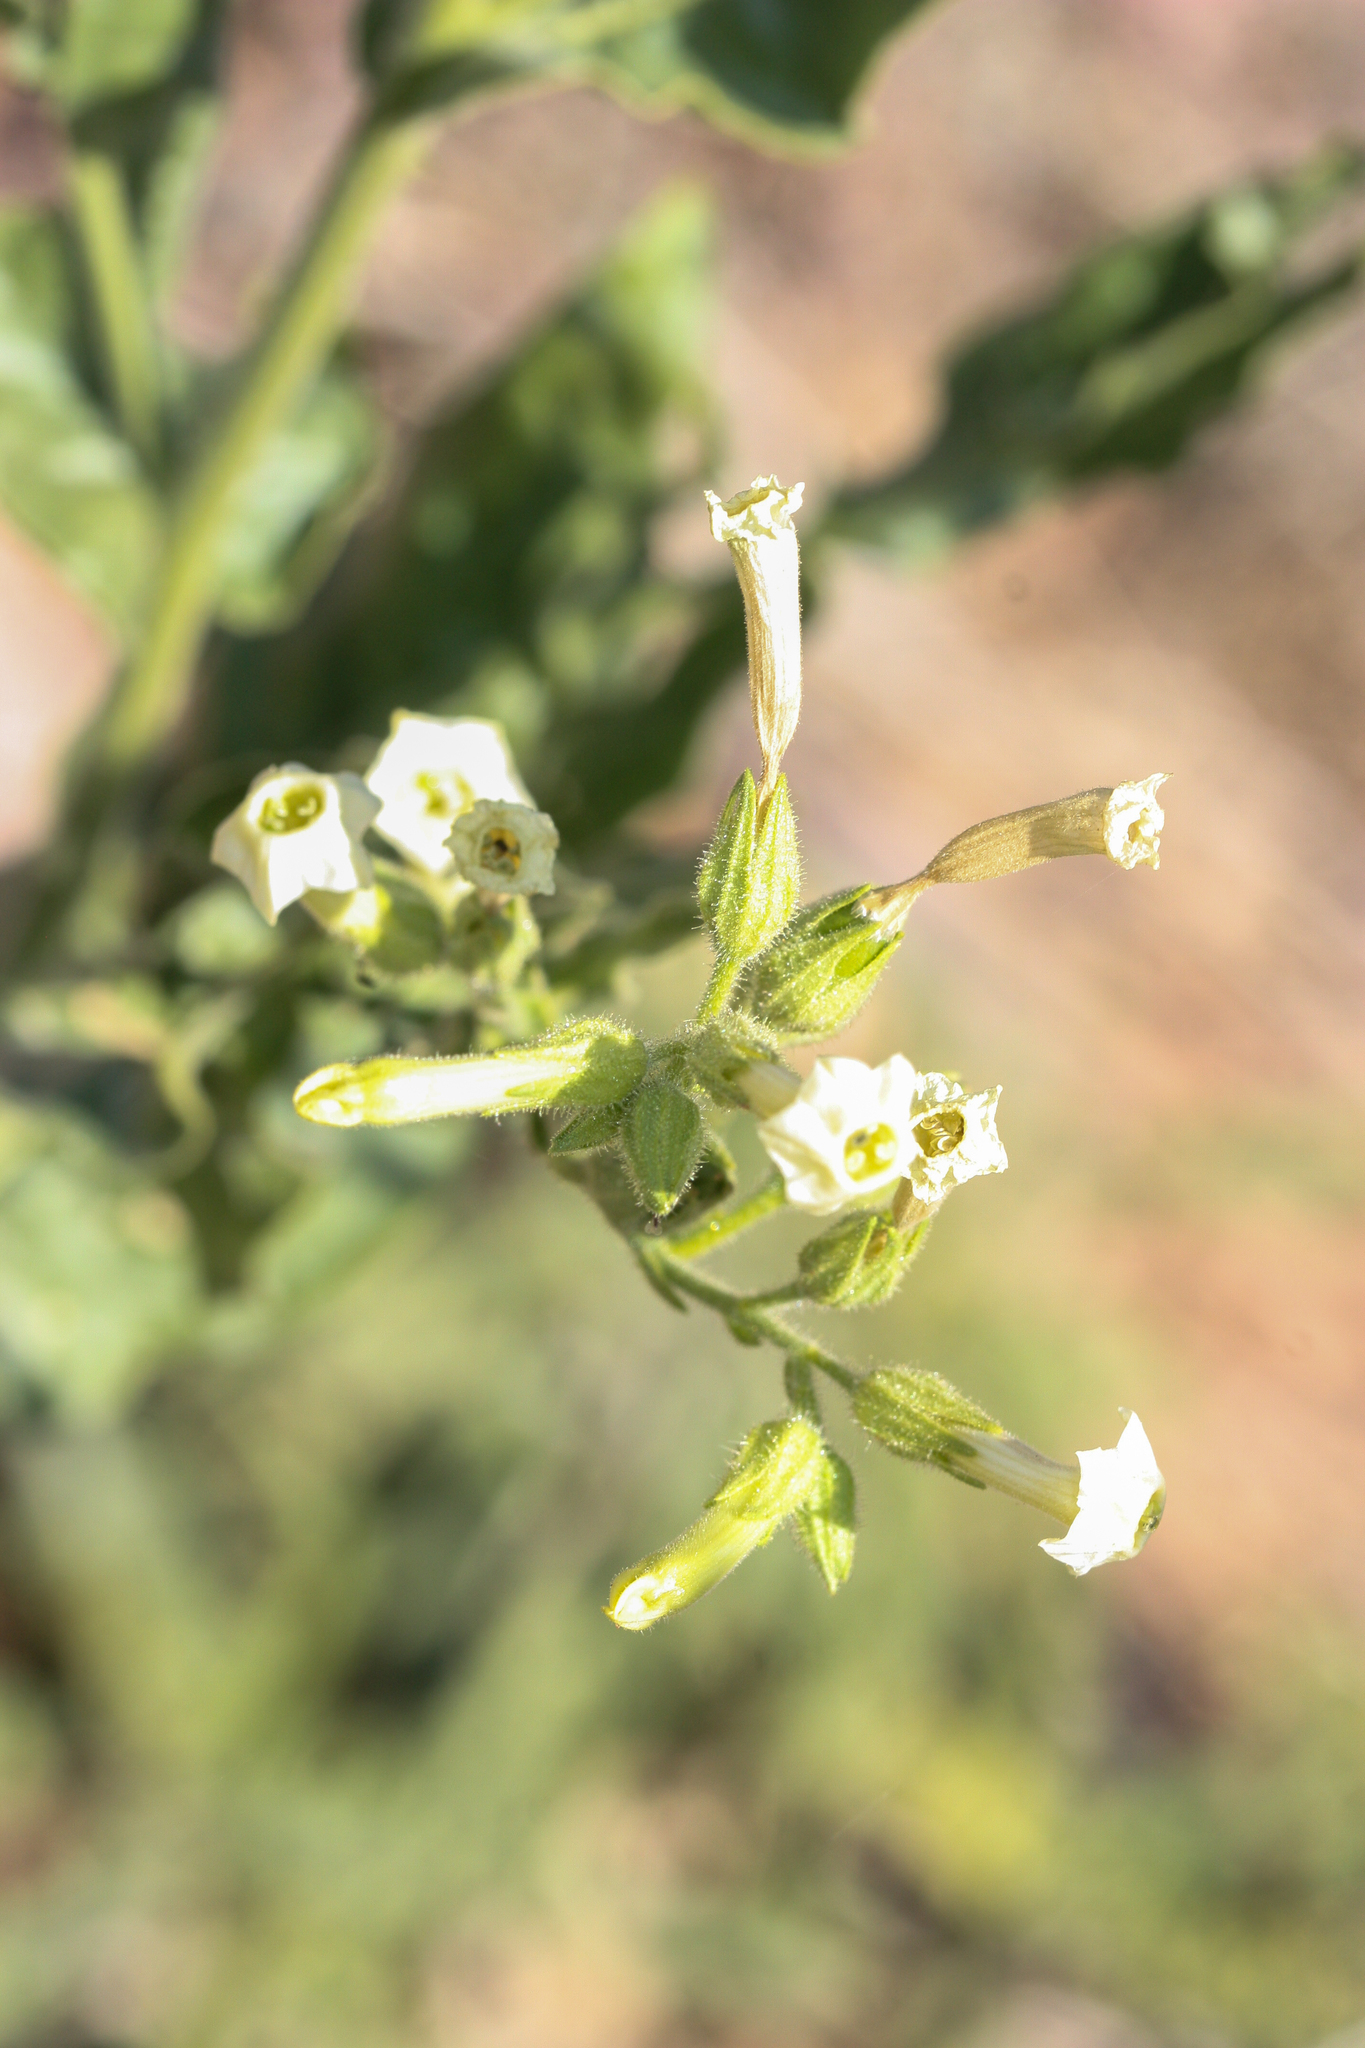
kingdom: Plantae
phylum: Tracheophyta
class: Magnoliopsida
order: Solanales
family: Solanaceae
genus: Nicotiana
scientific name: Nicotiana obtusifolia
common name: Desert tobacco
